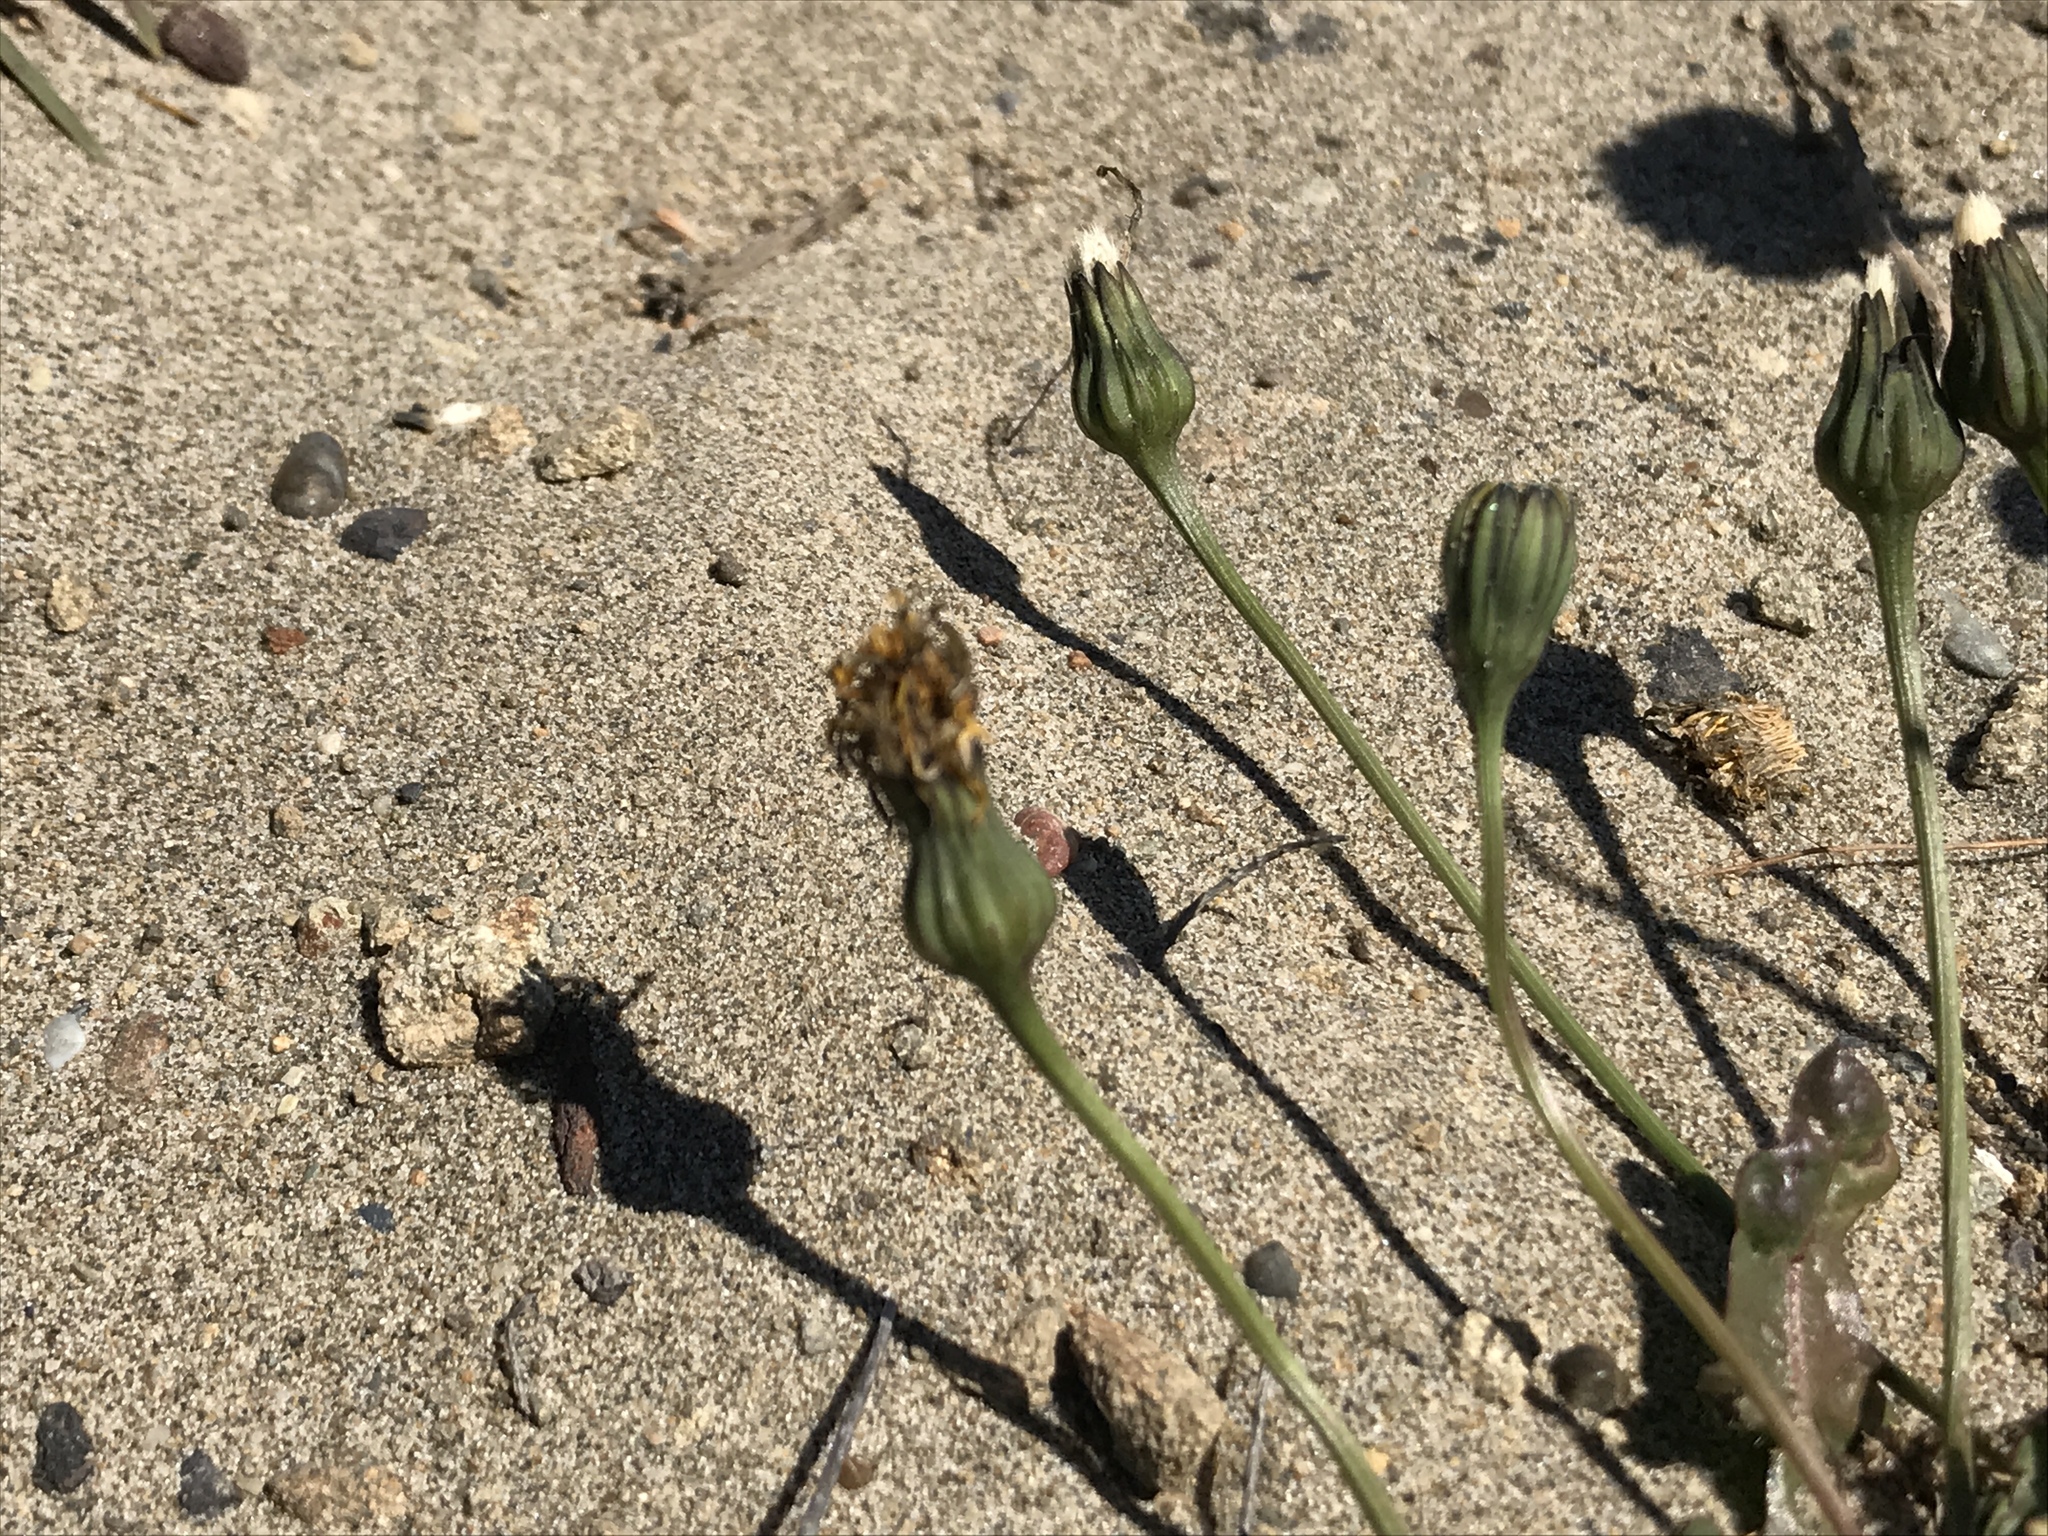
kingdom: Plantae
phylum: Tracheophyta
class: Magnoliopsida
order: Asterales
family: Asteraceae
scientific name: Asteraceae
